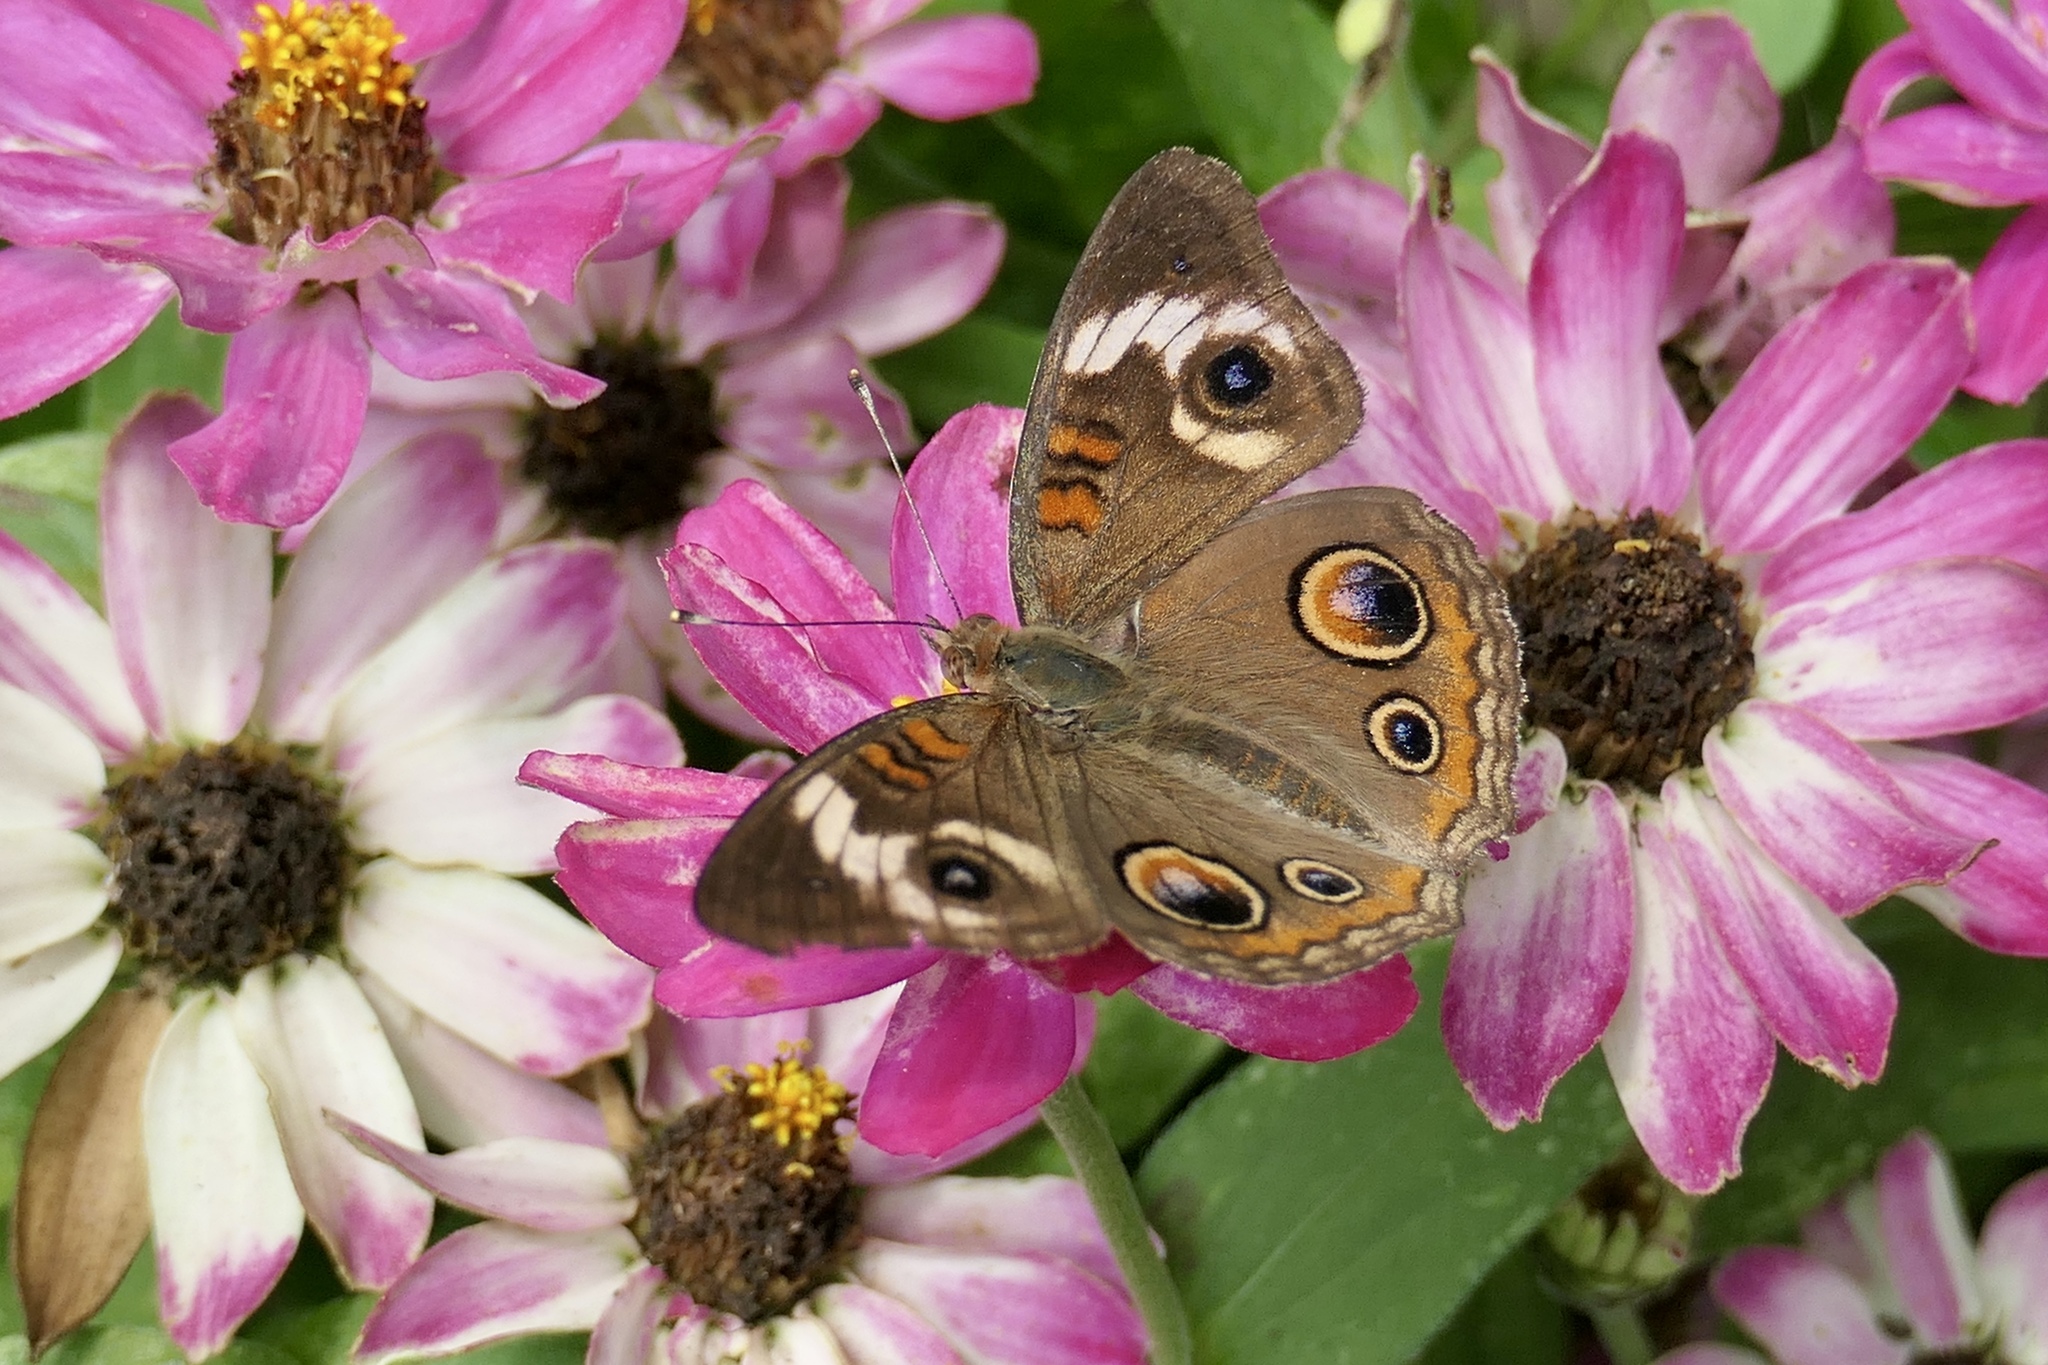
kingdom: Animalia
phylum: Arthropoda
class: Insecta
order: Lepidoptera
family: Nymphalidae
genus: Junonia
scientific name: Junonia coenia
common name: Common buckeye
